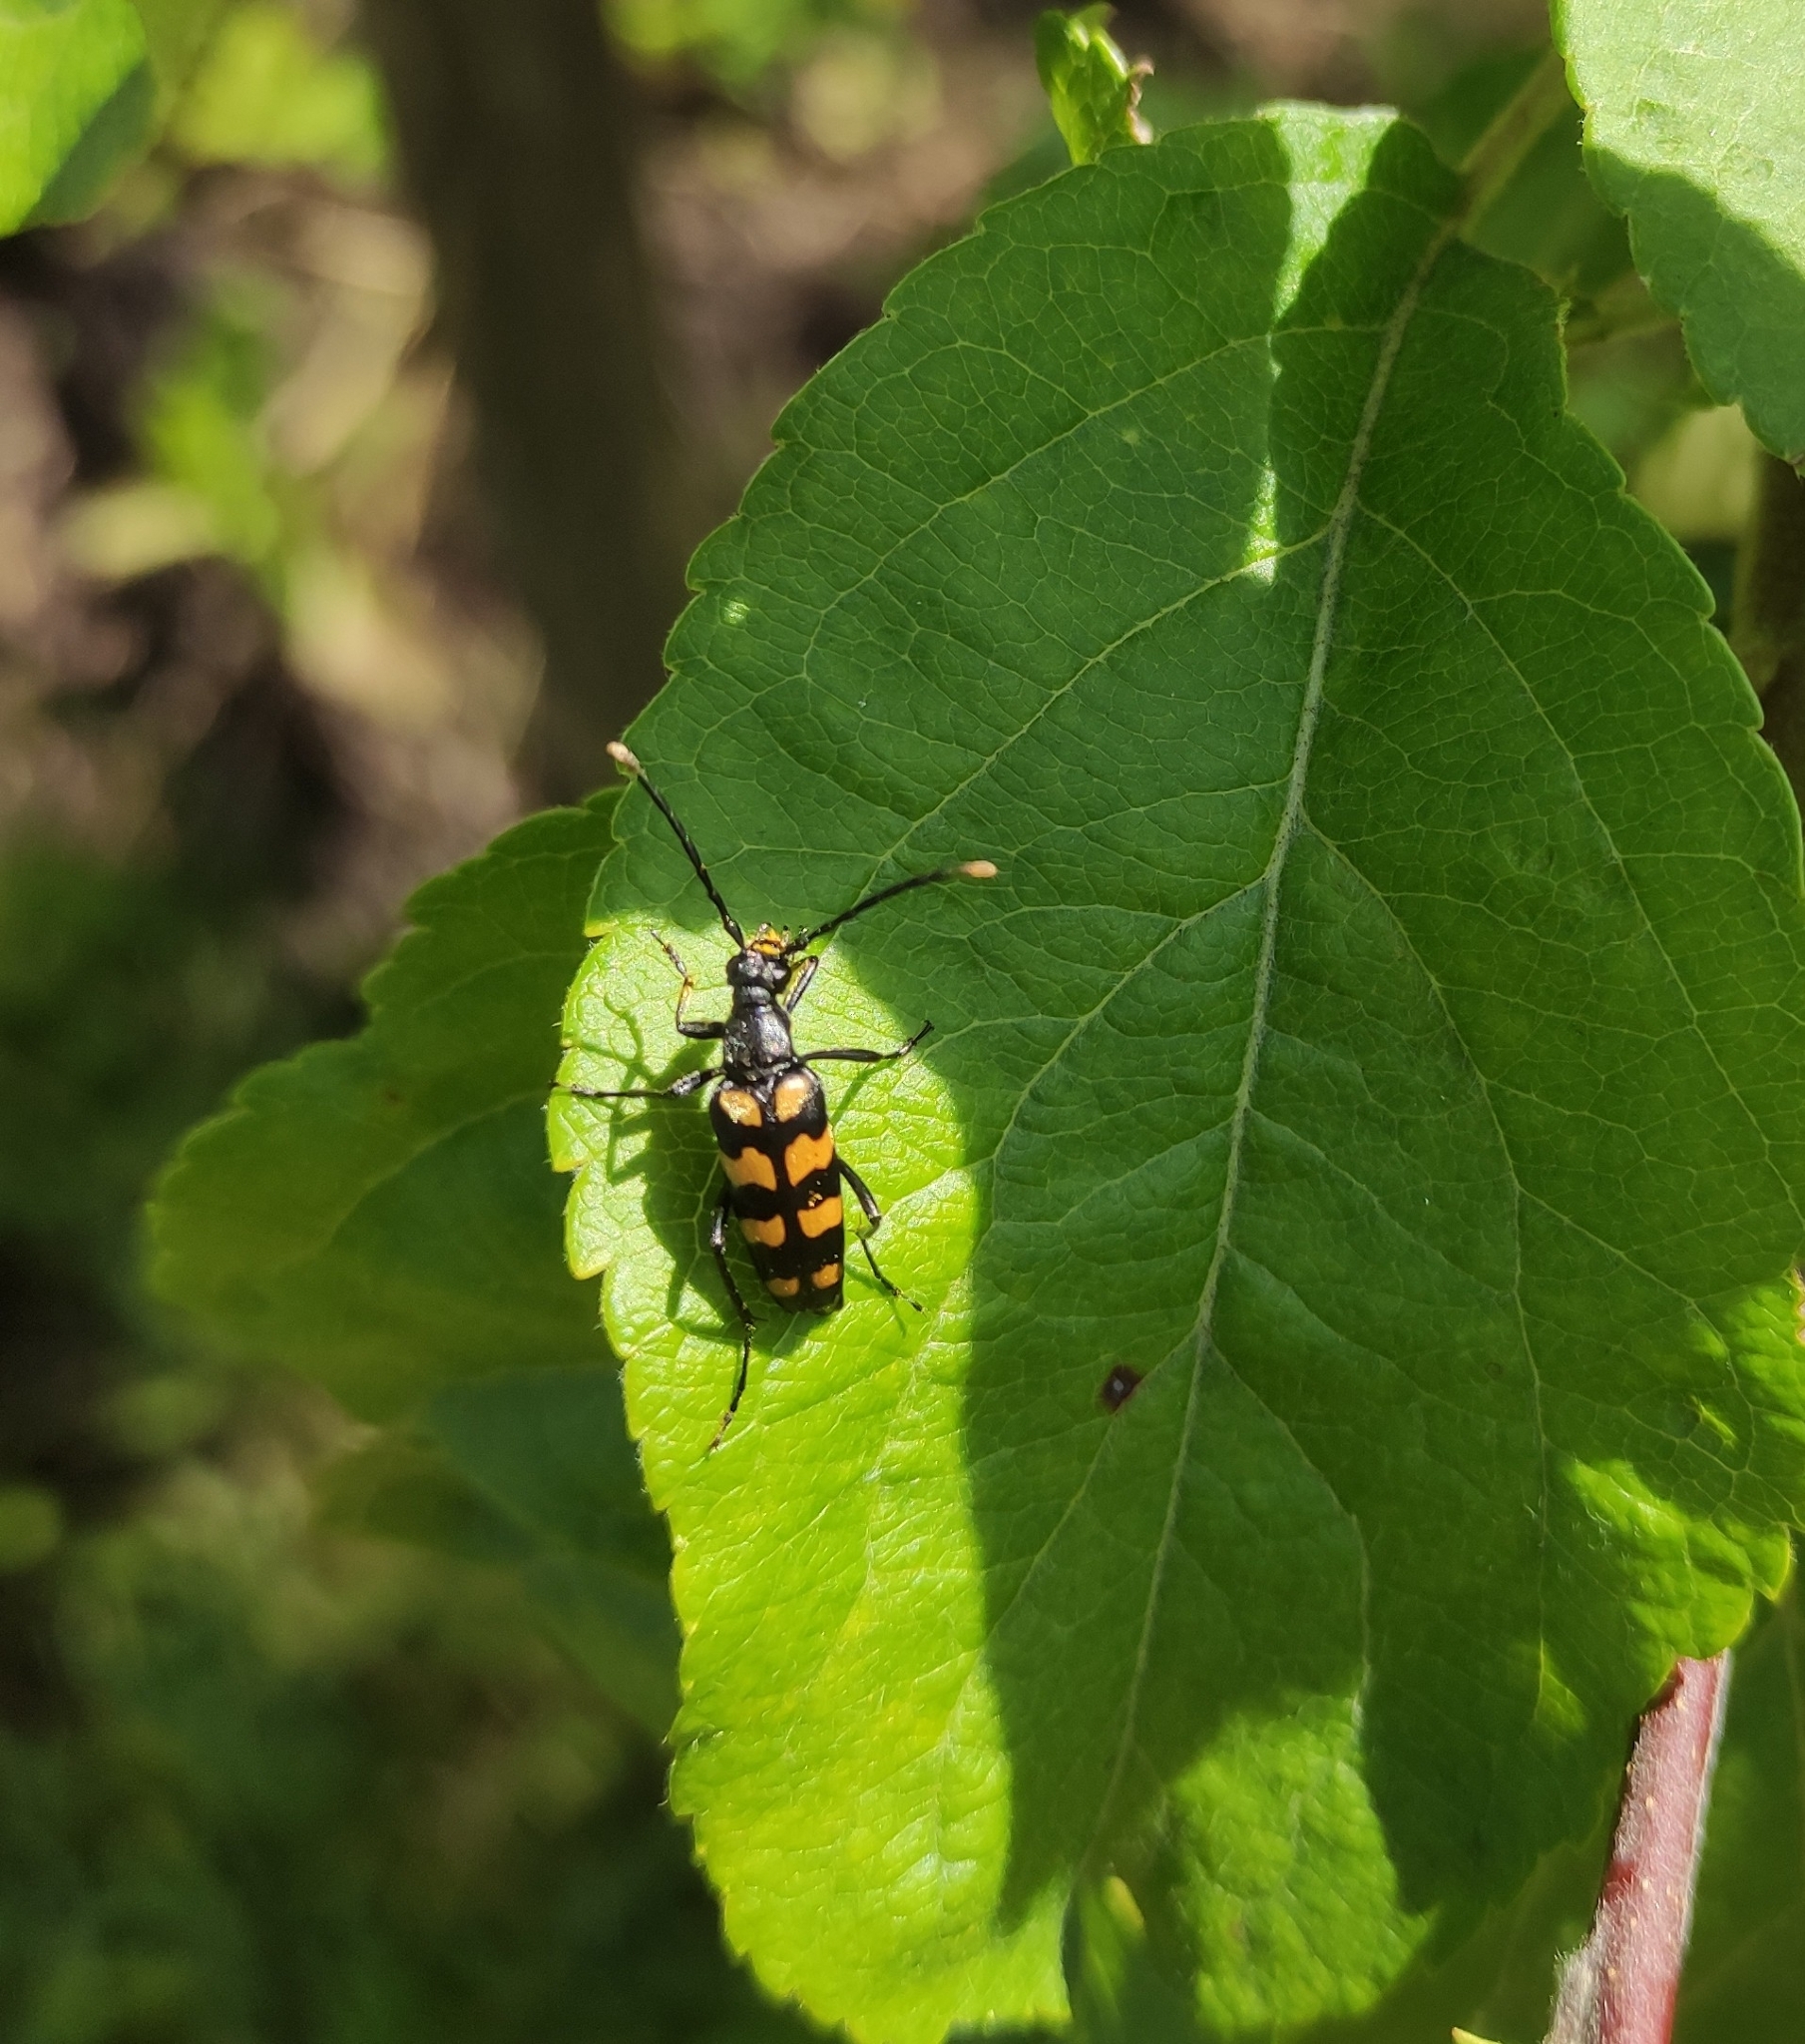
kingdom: Animalia
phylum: Arthropoda
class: Insecta
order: Coleoptera
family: Cerambycidae
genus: Leptura
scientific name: Leptura quadrifasciata
